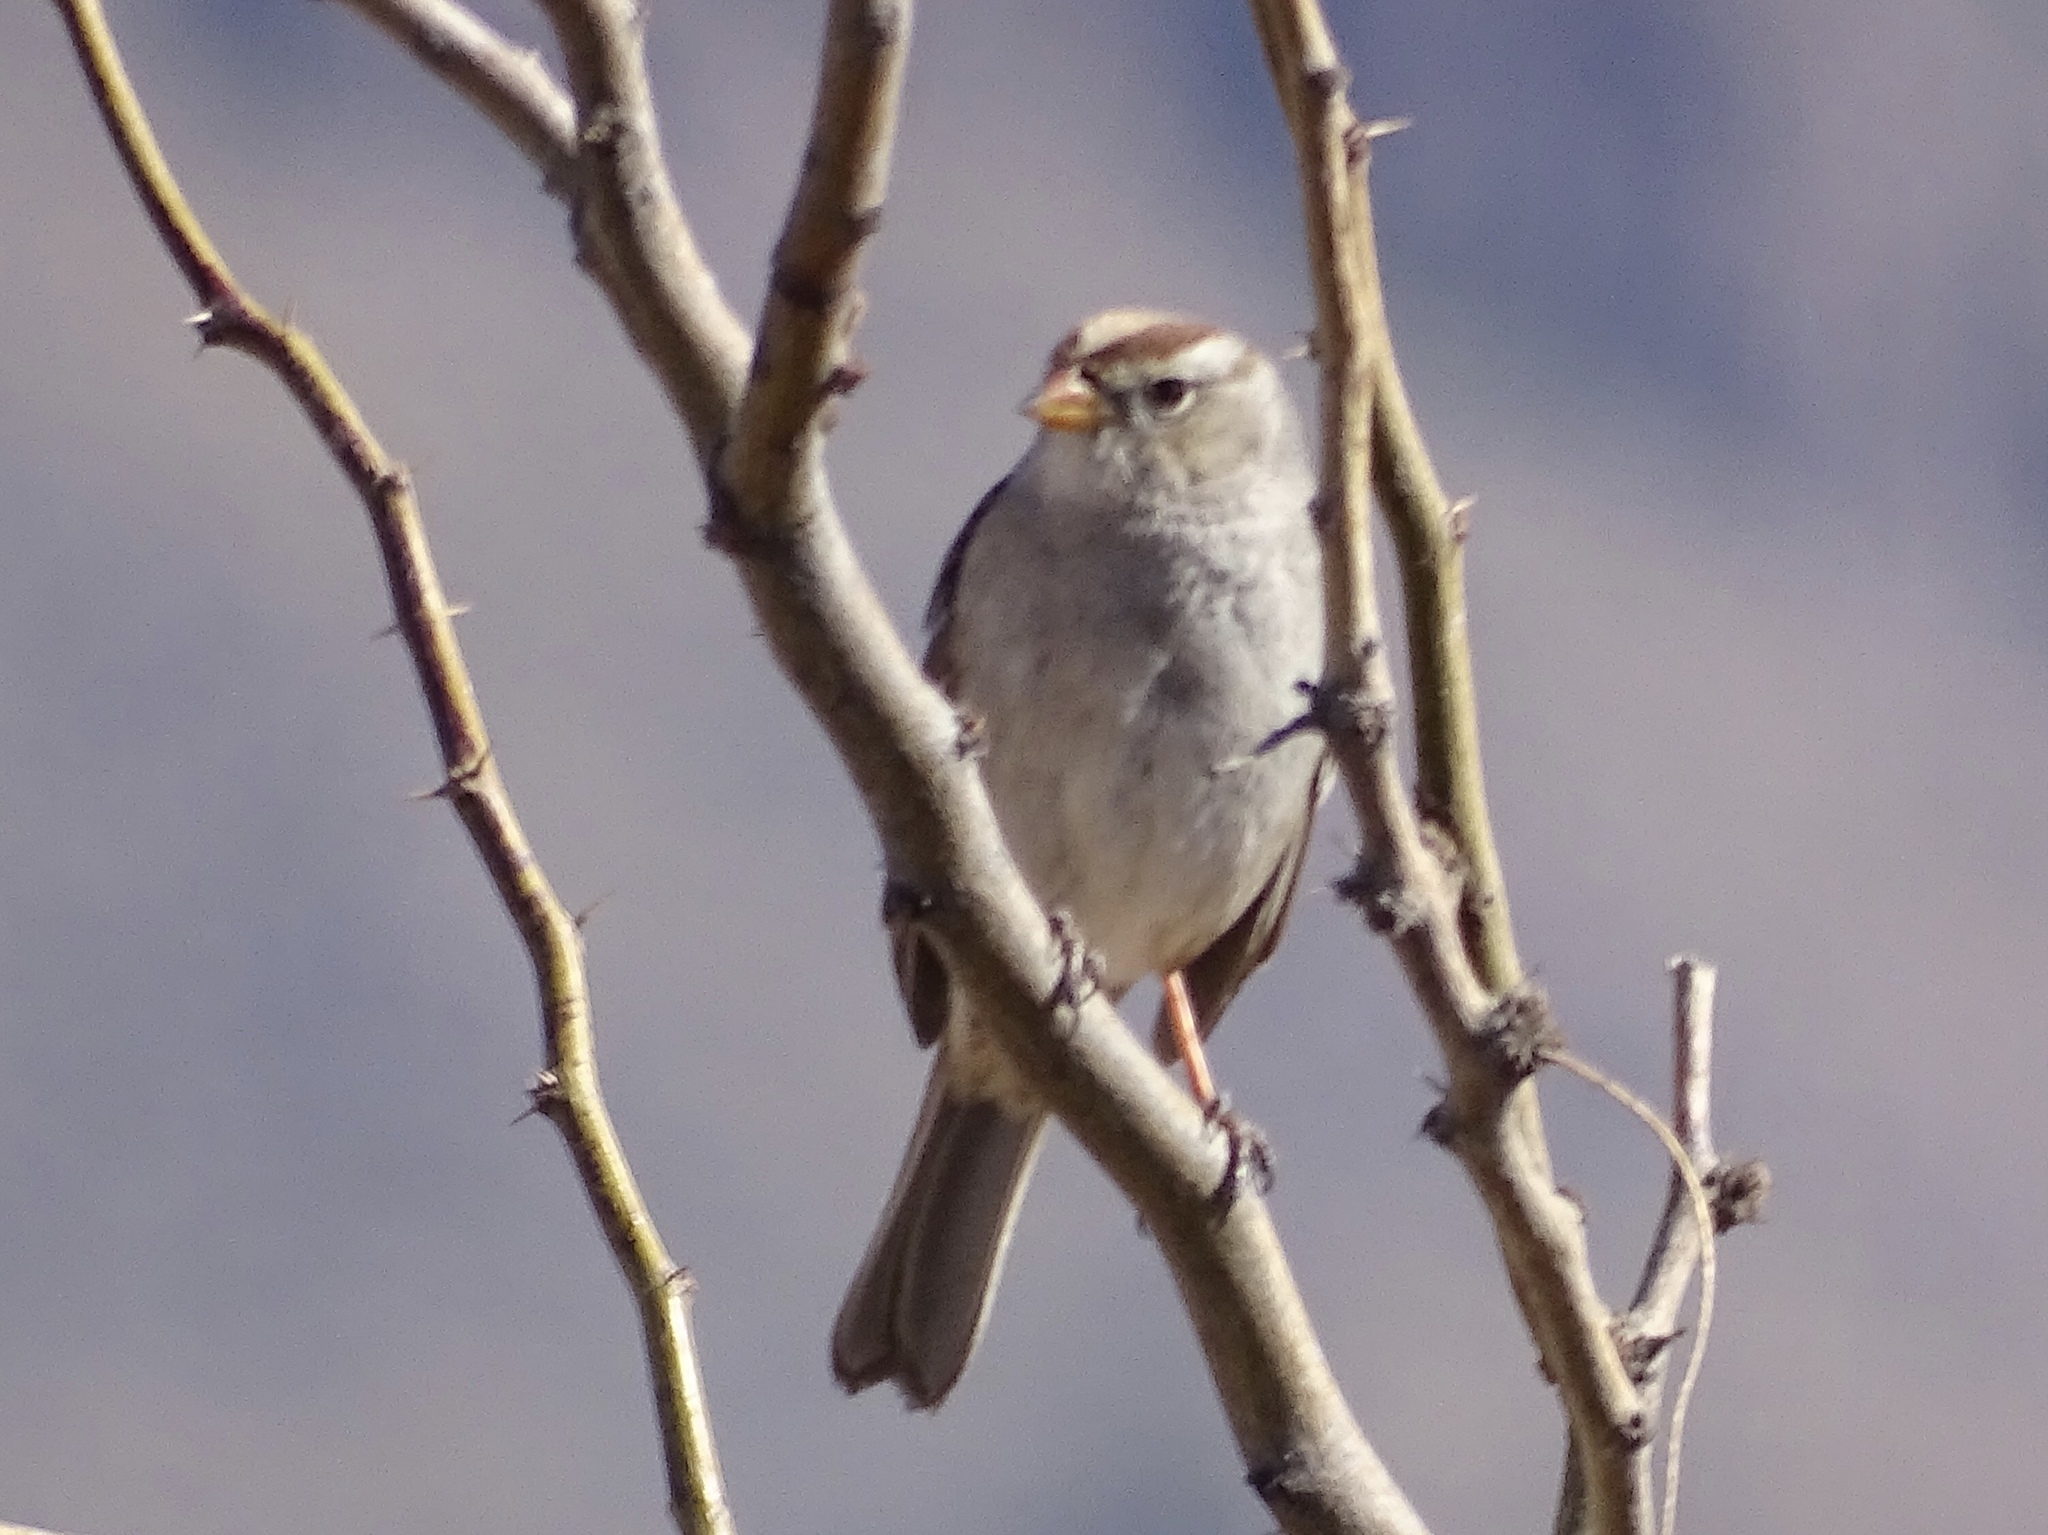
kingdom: Animalia
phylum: Chordata
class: Aves
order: Passeriformes
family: Passerellidae
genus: Zonotrichia
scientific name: Zonotrichia leucophrys
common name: White-crowned sparrow
